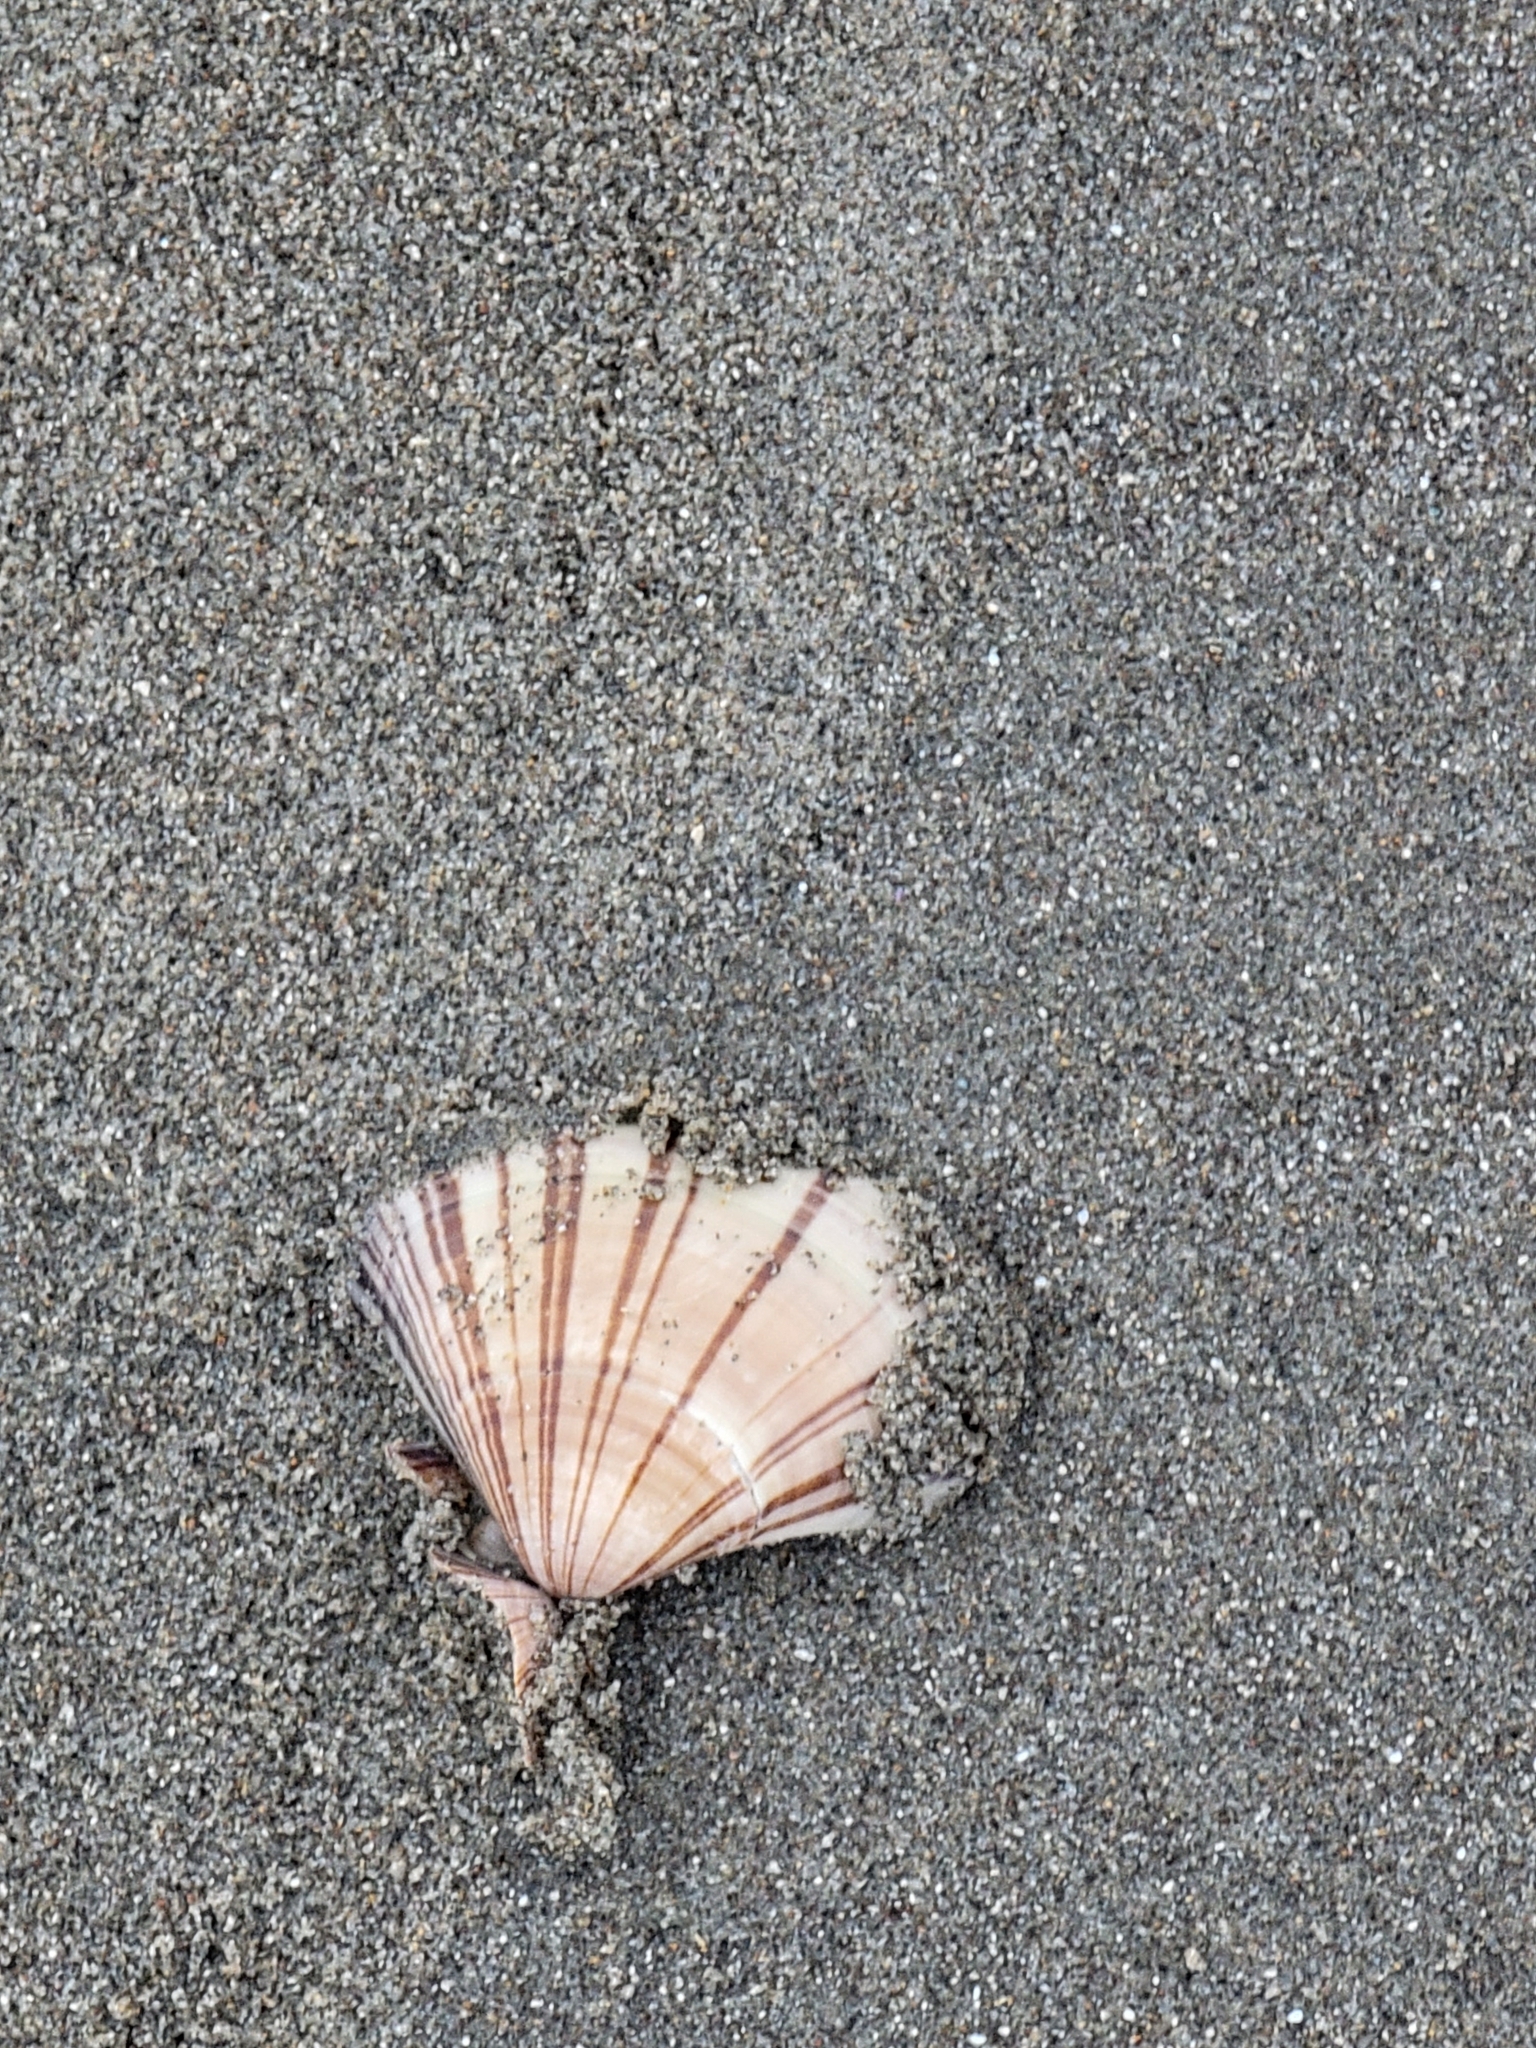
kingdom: Animalia
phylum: Mollusca
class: Bivalvia
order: Venerida
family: Veneridae
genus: Tivela
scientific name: Tivela stultorum
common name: Pismo clam
